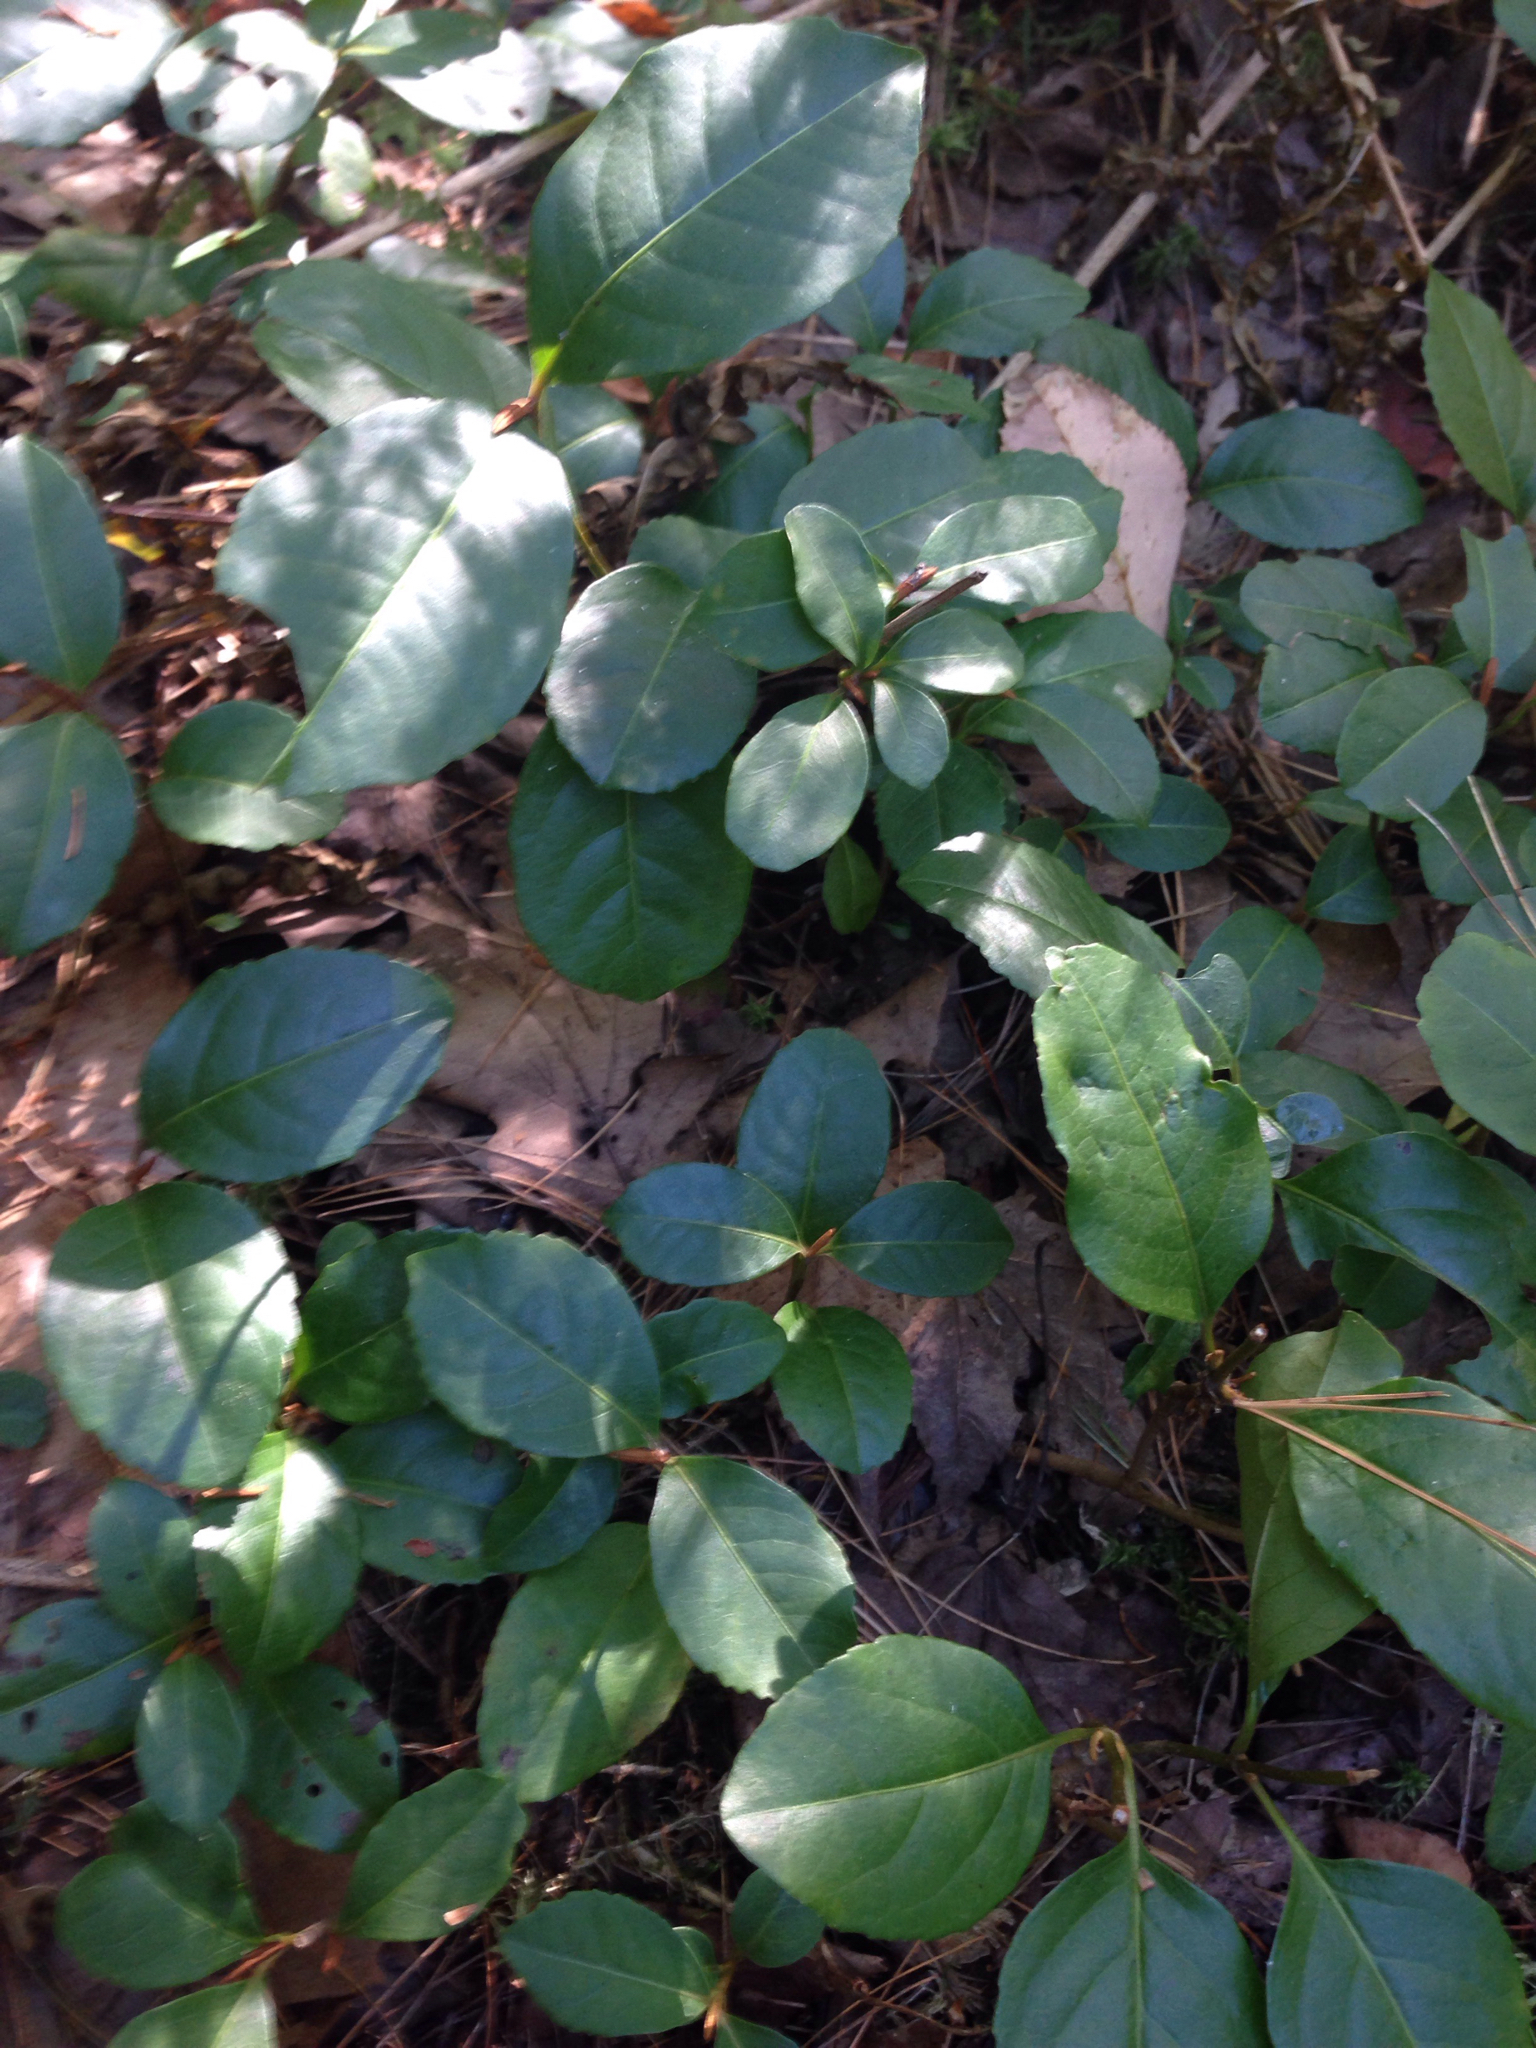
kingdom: Plantae
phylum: Tracheophyta
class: Magnoliopsida
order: Dipsacales
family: Viburnaceae
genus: Viburnum
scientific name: Viburnum cassinoides
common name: Swamp haw
